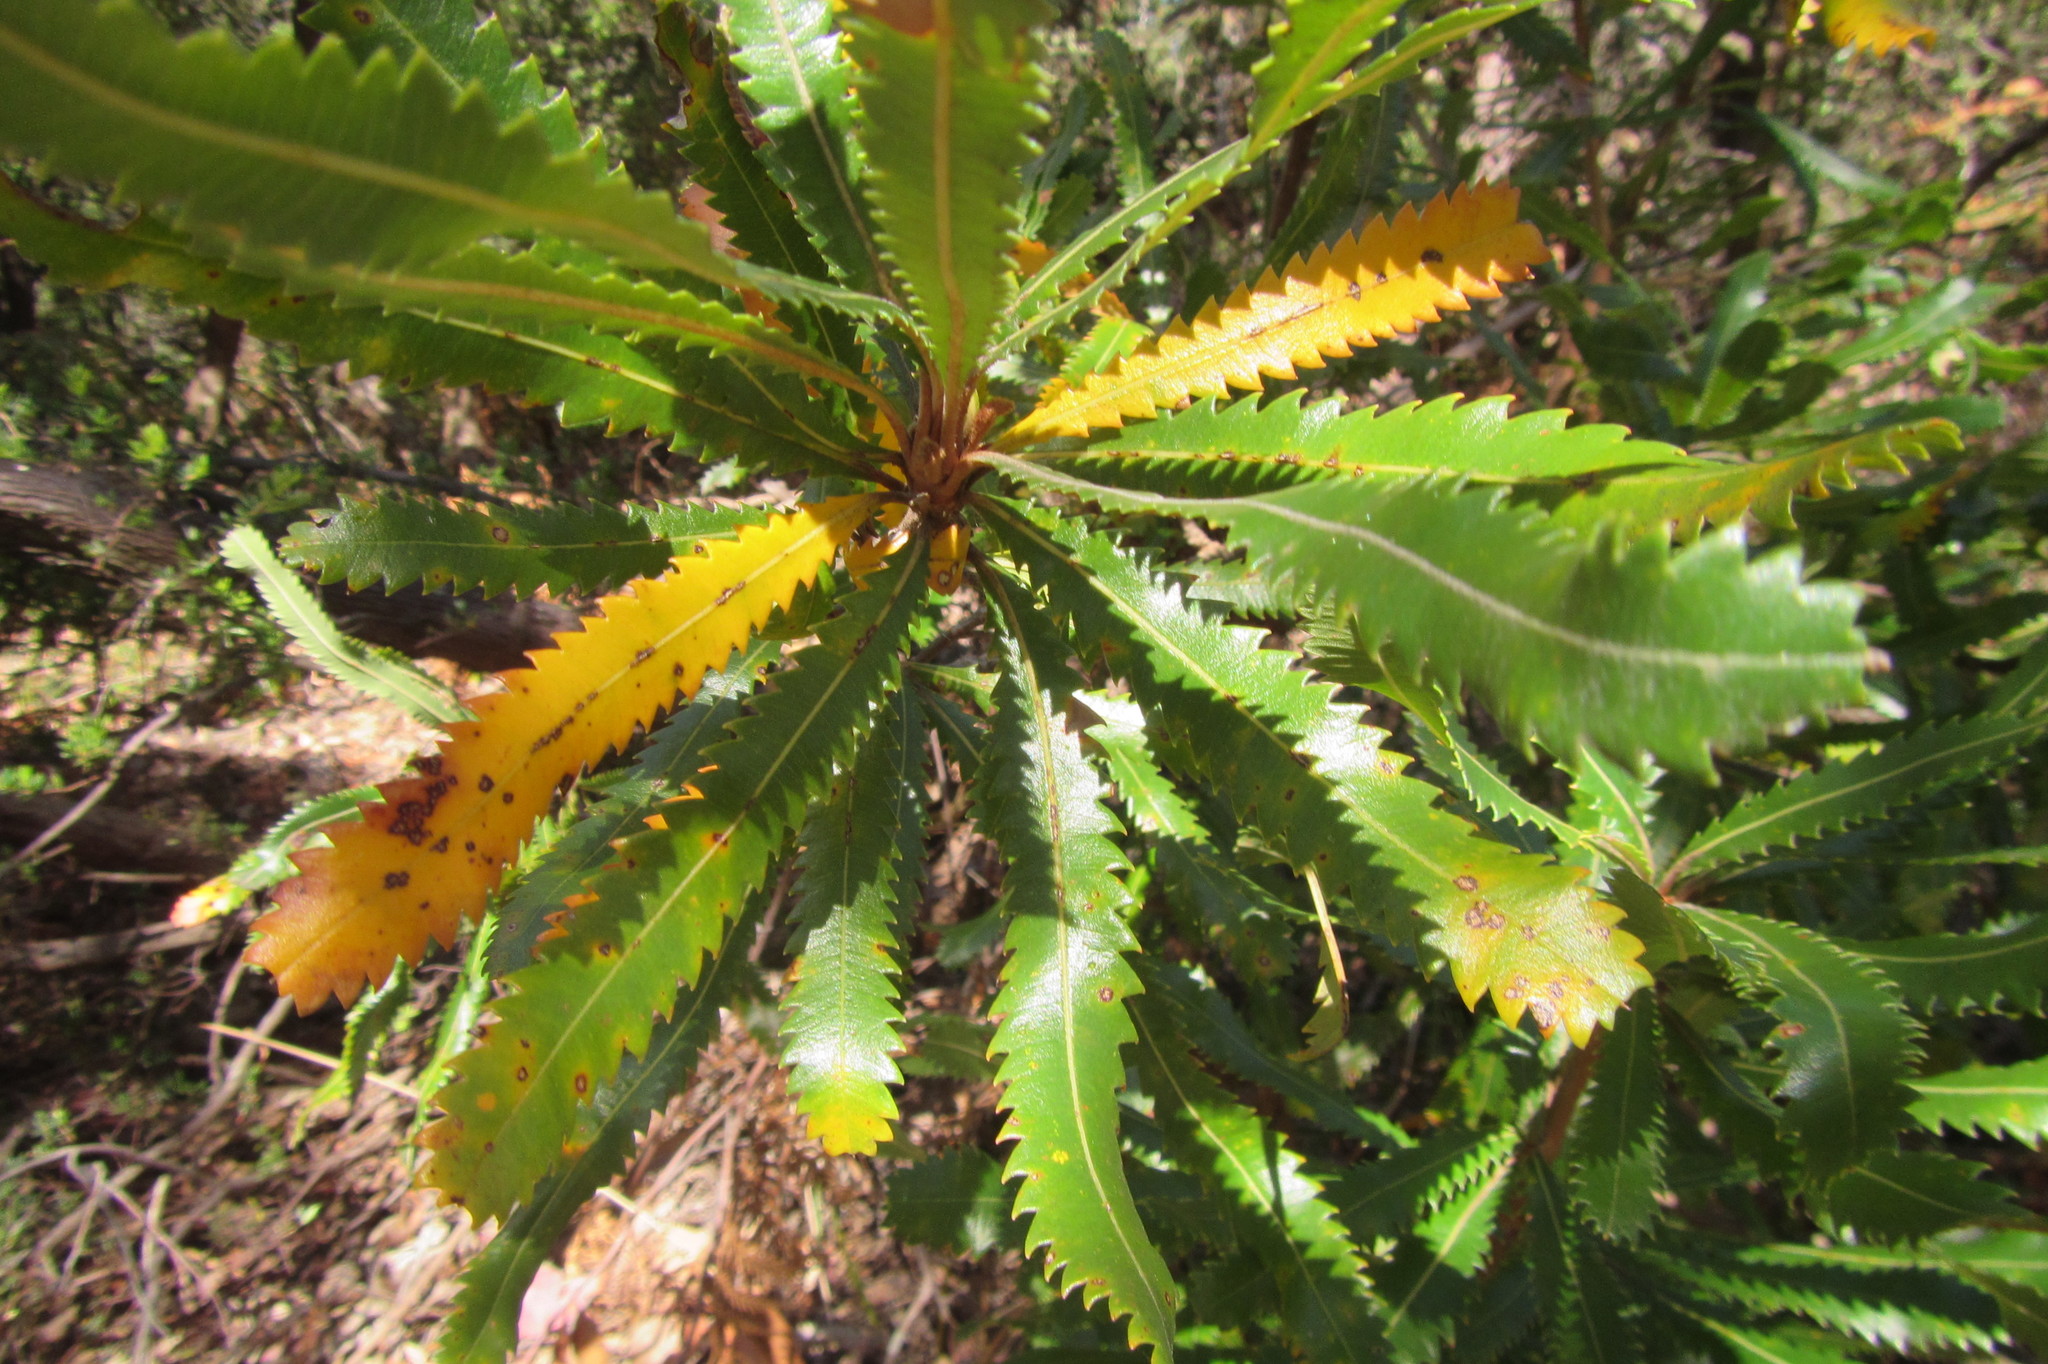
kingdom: Plantae
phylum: Tracheophyta
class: Magnoliopsida
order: Proteales
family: Proteaceae
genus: Banksia
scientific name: Banksia aemula
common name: Wallum banksia
